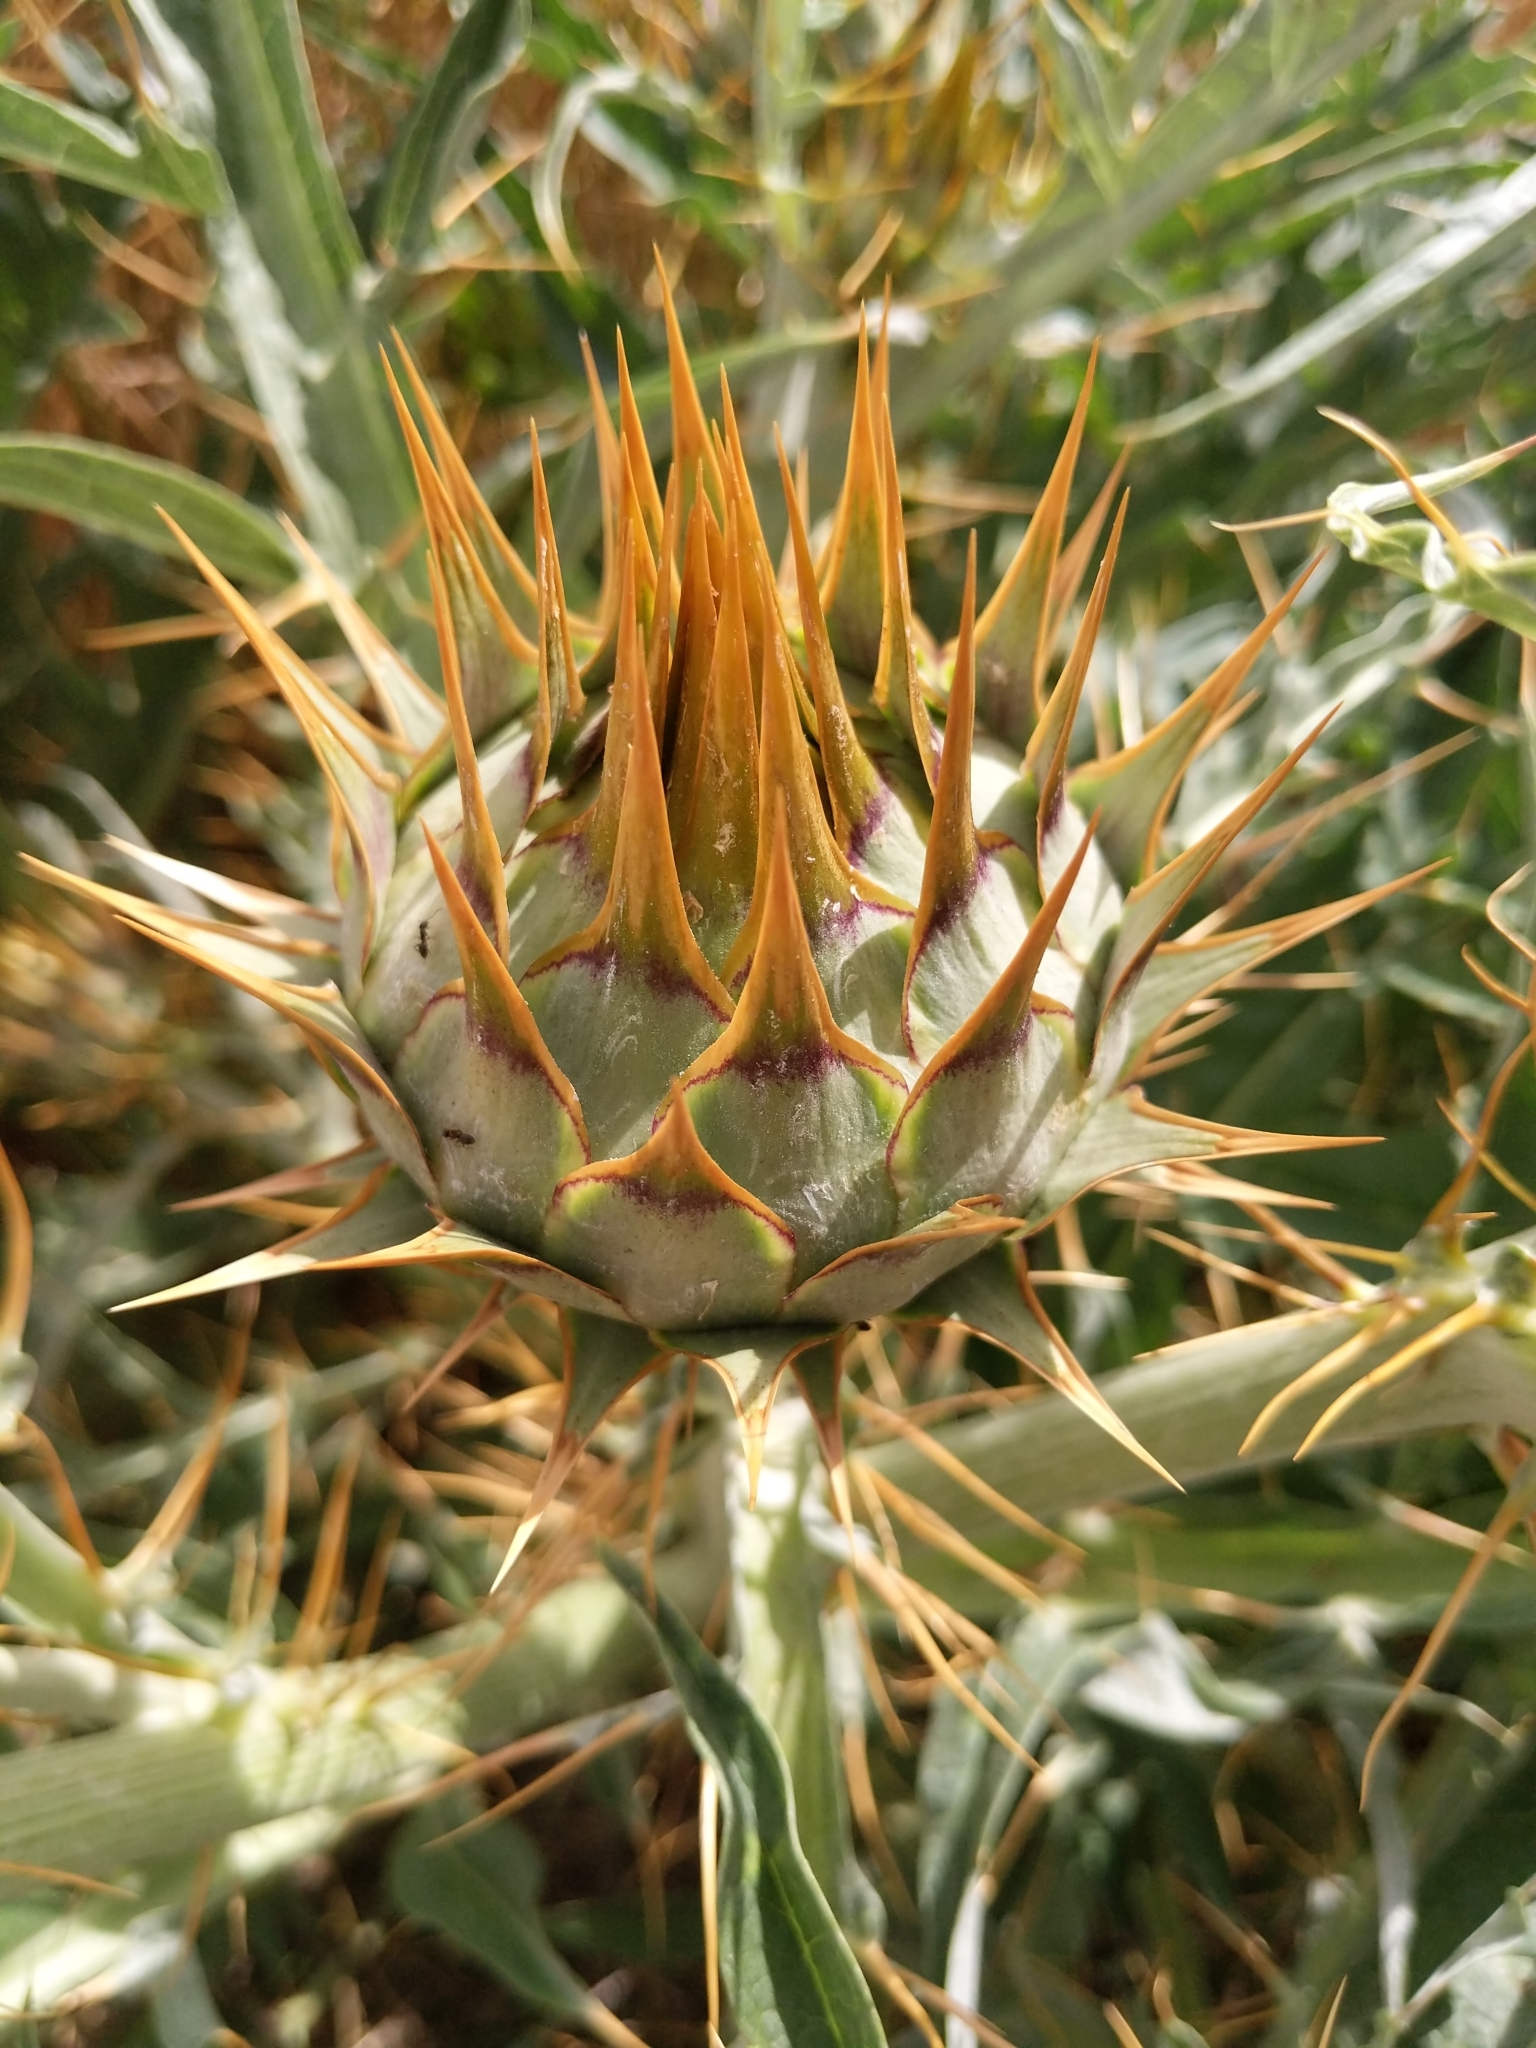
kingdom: Plantae
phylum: Tracheophyta
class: Magnoliopsida
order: Asterales
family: Asteraceae
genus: Cynara
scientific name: Cynara cardunculus
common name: Globe artichoke
